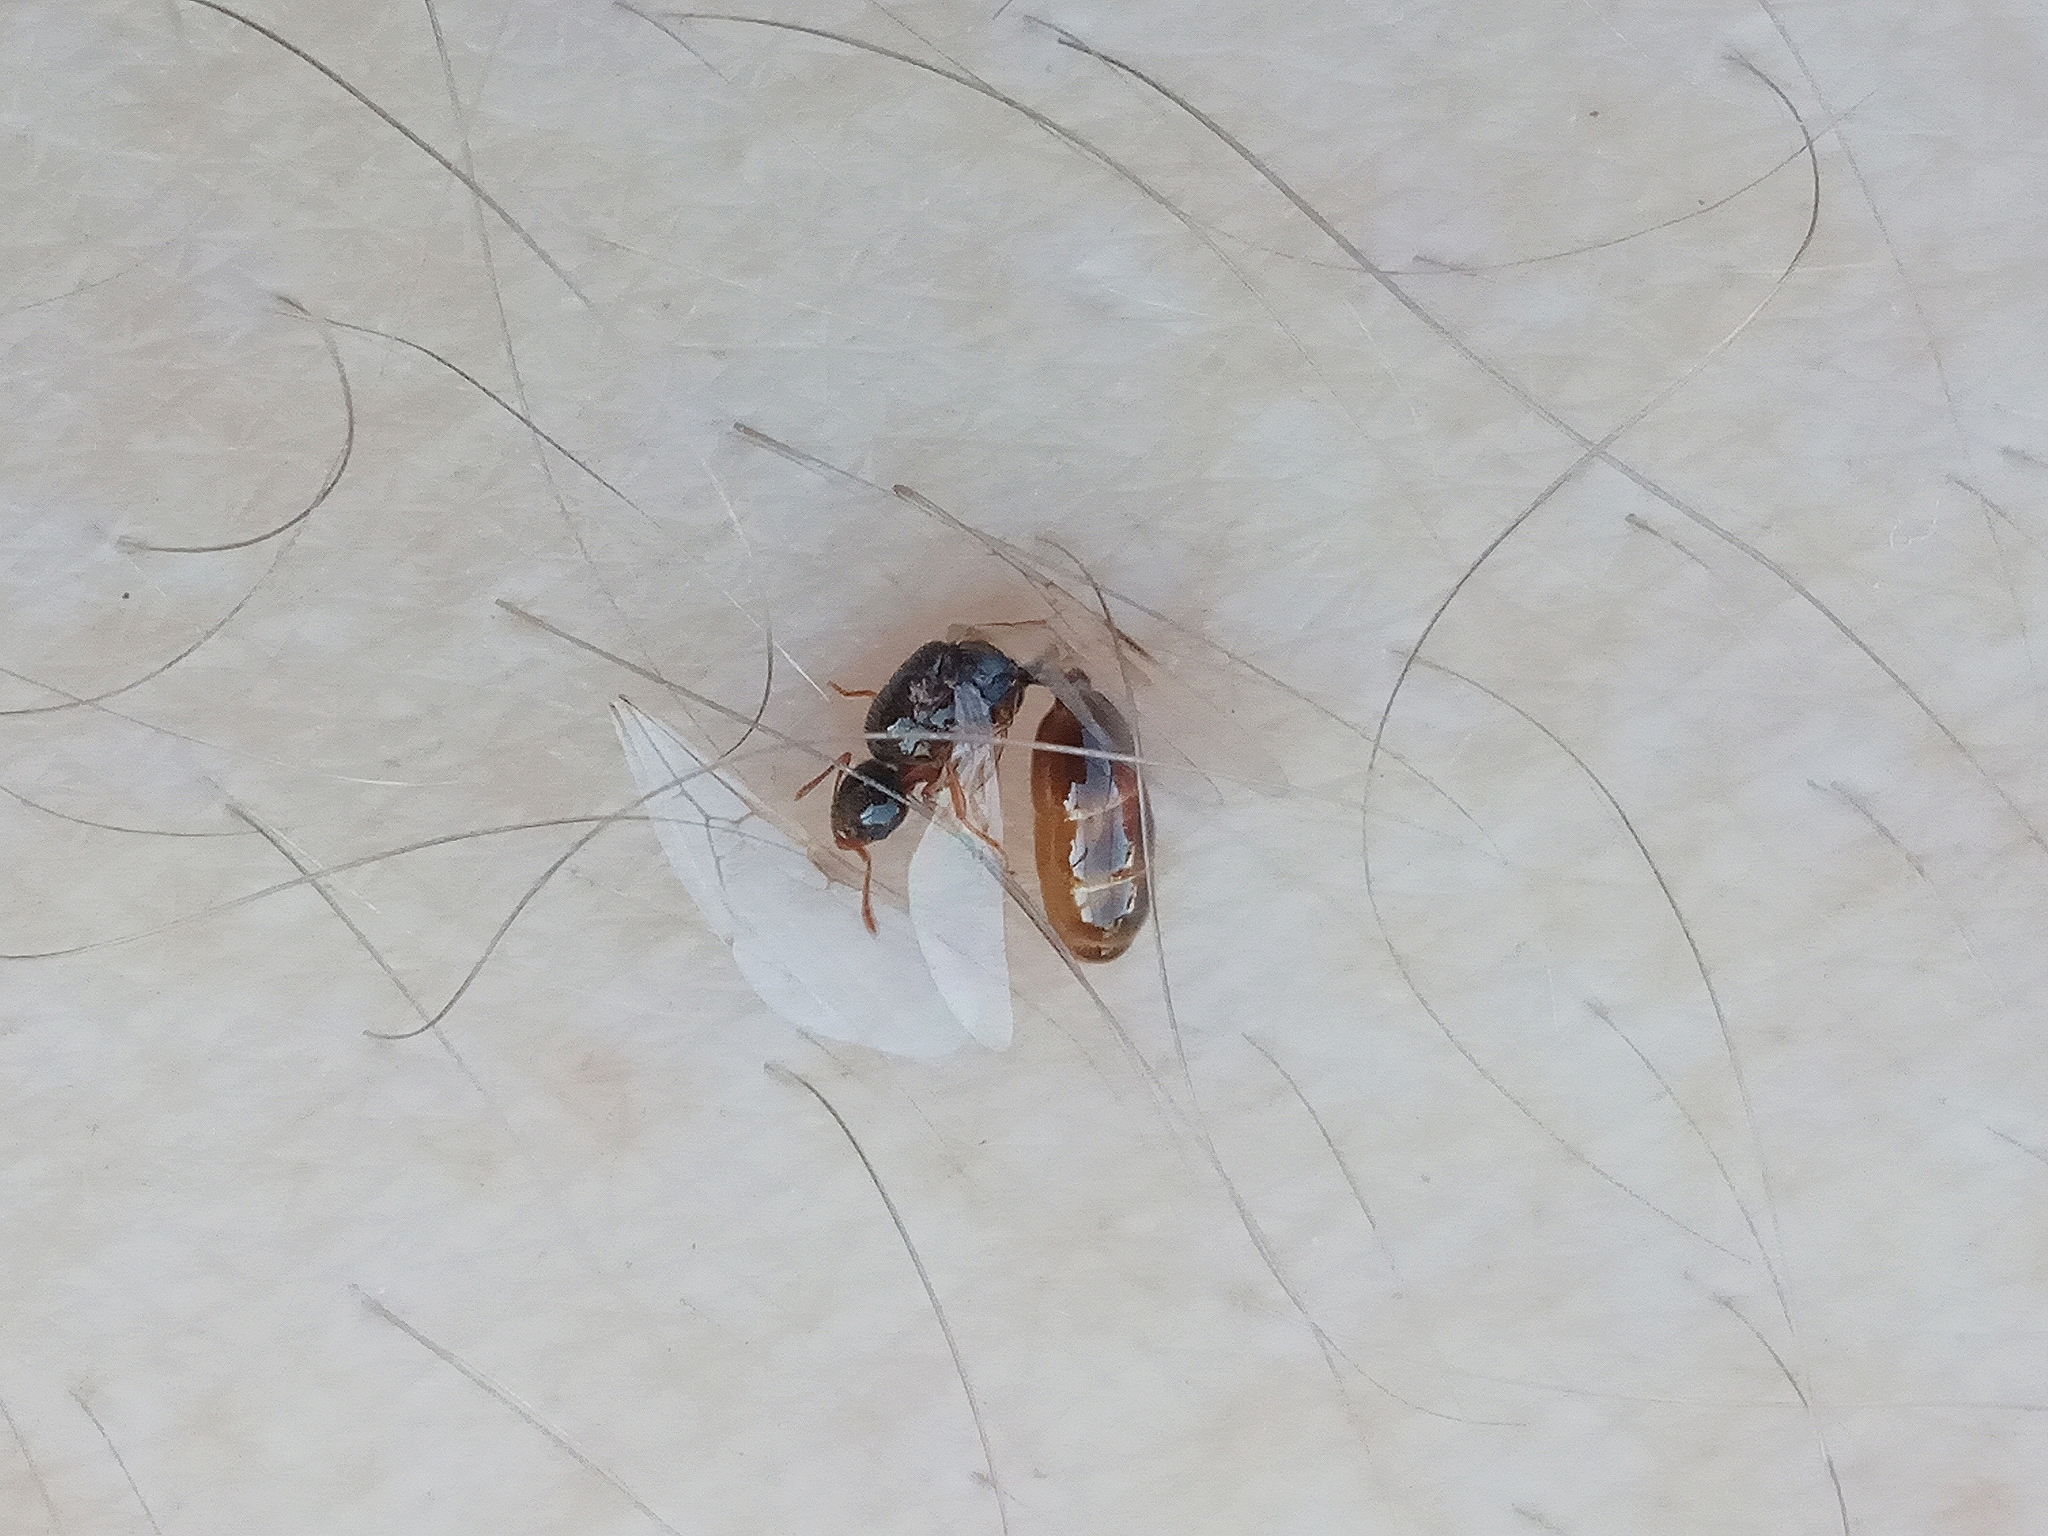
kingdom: Animalia
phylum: Arthropoda
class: Insecta
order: Hymenoptera
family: Formicidae
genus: Solenopsis
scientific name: Solenopsis
